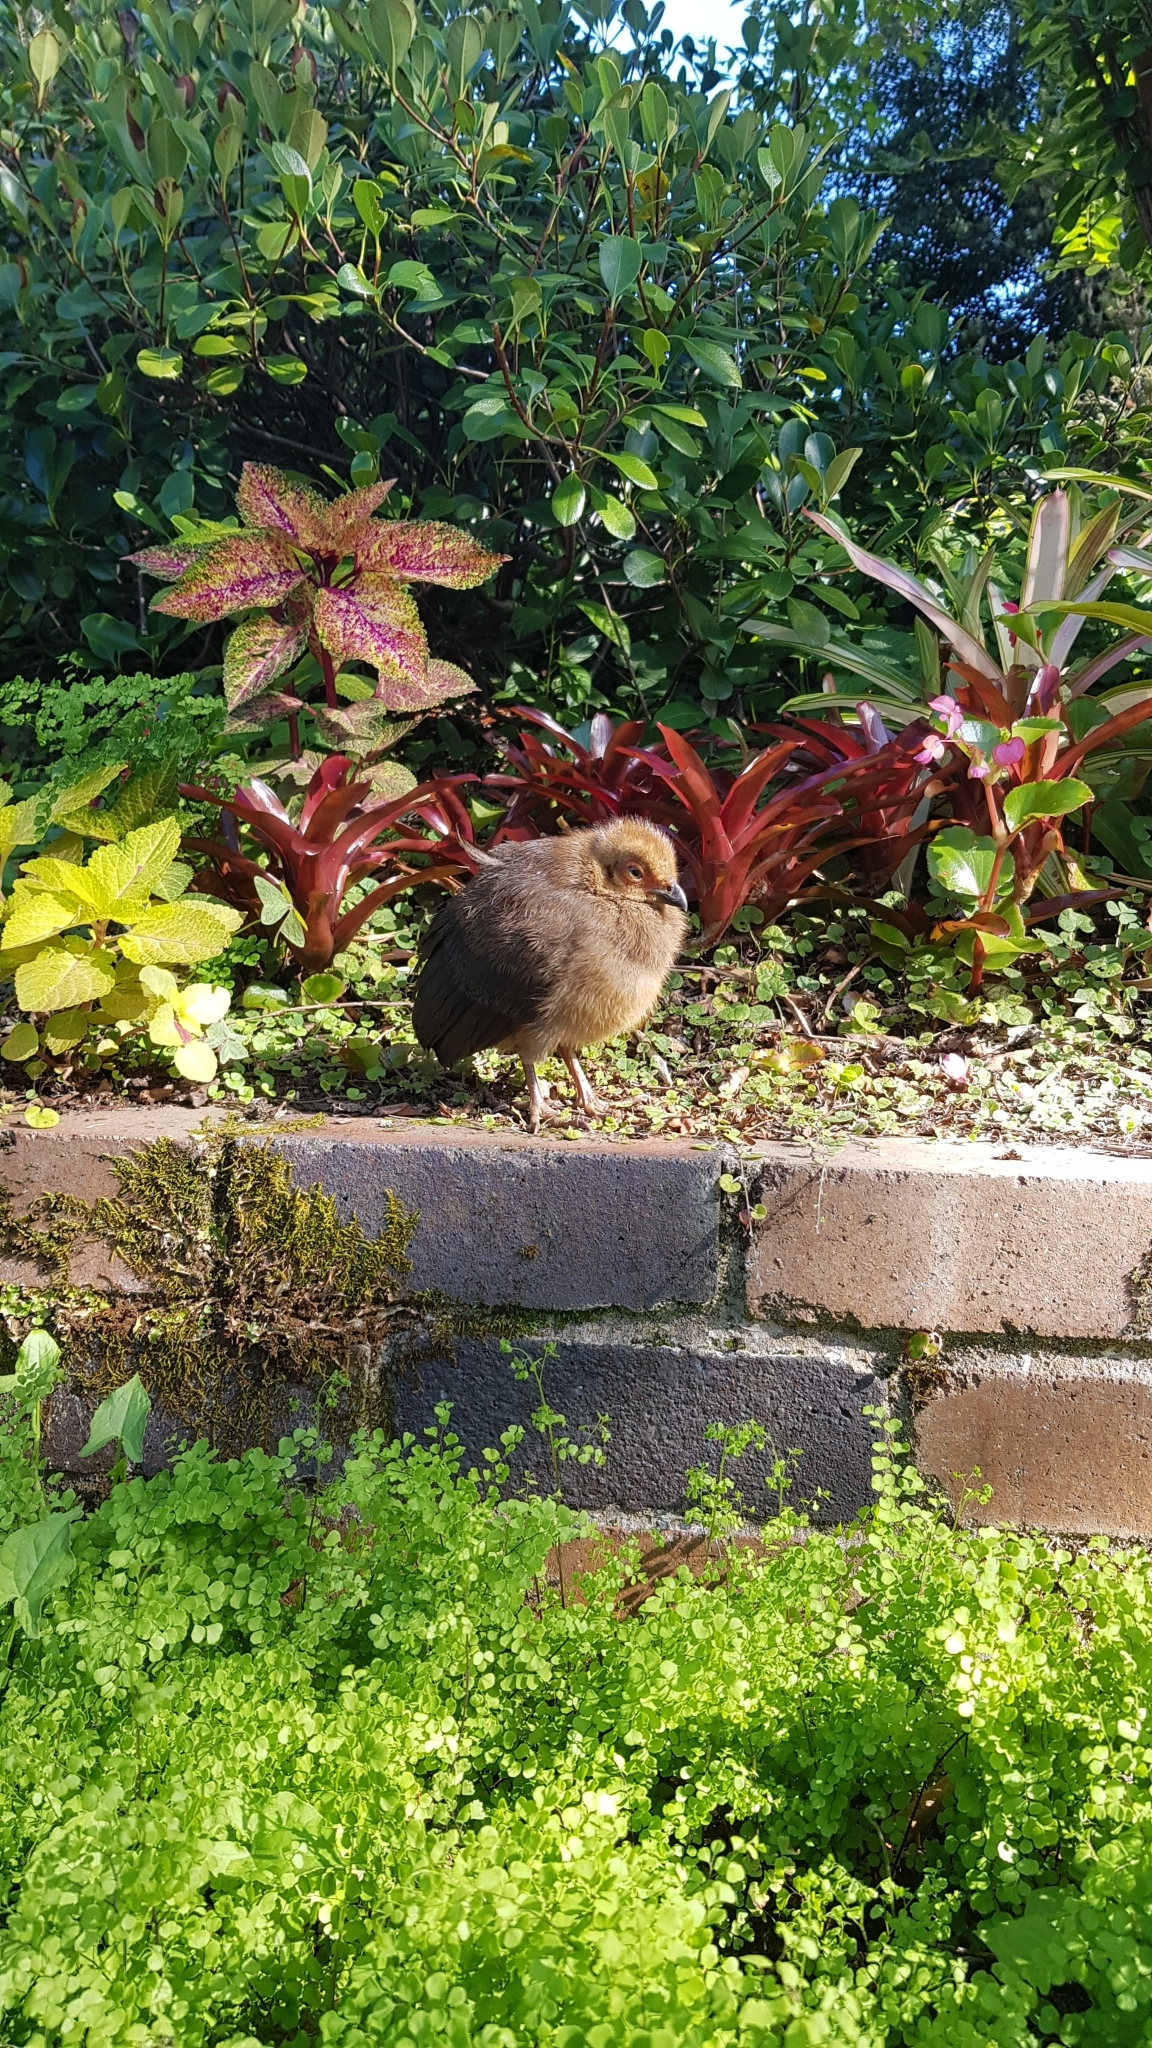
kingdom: Animalia
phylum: Chordata
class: Aves
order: Galliformes
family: Megapodiidae
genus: Alectura
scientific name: Alectura lathami
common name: Australian brushturkey
